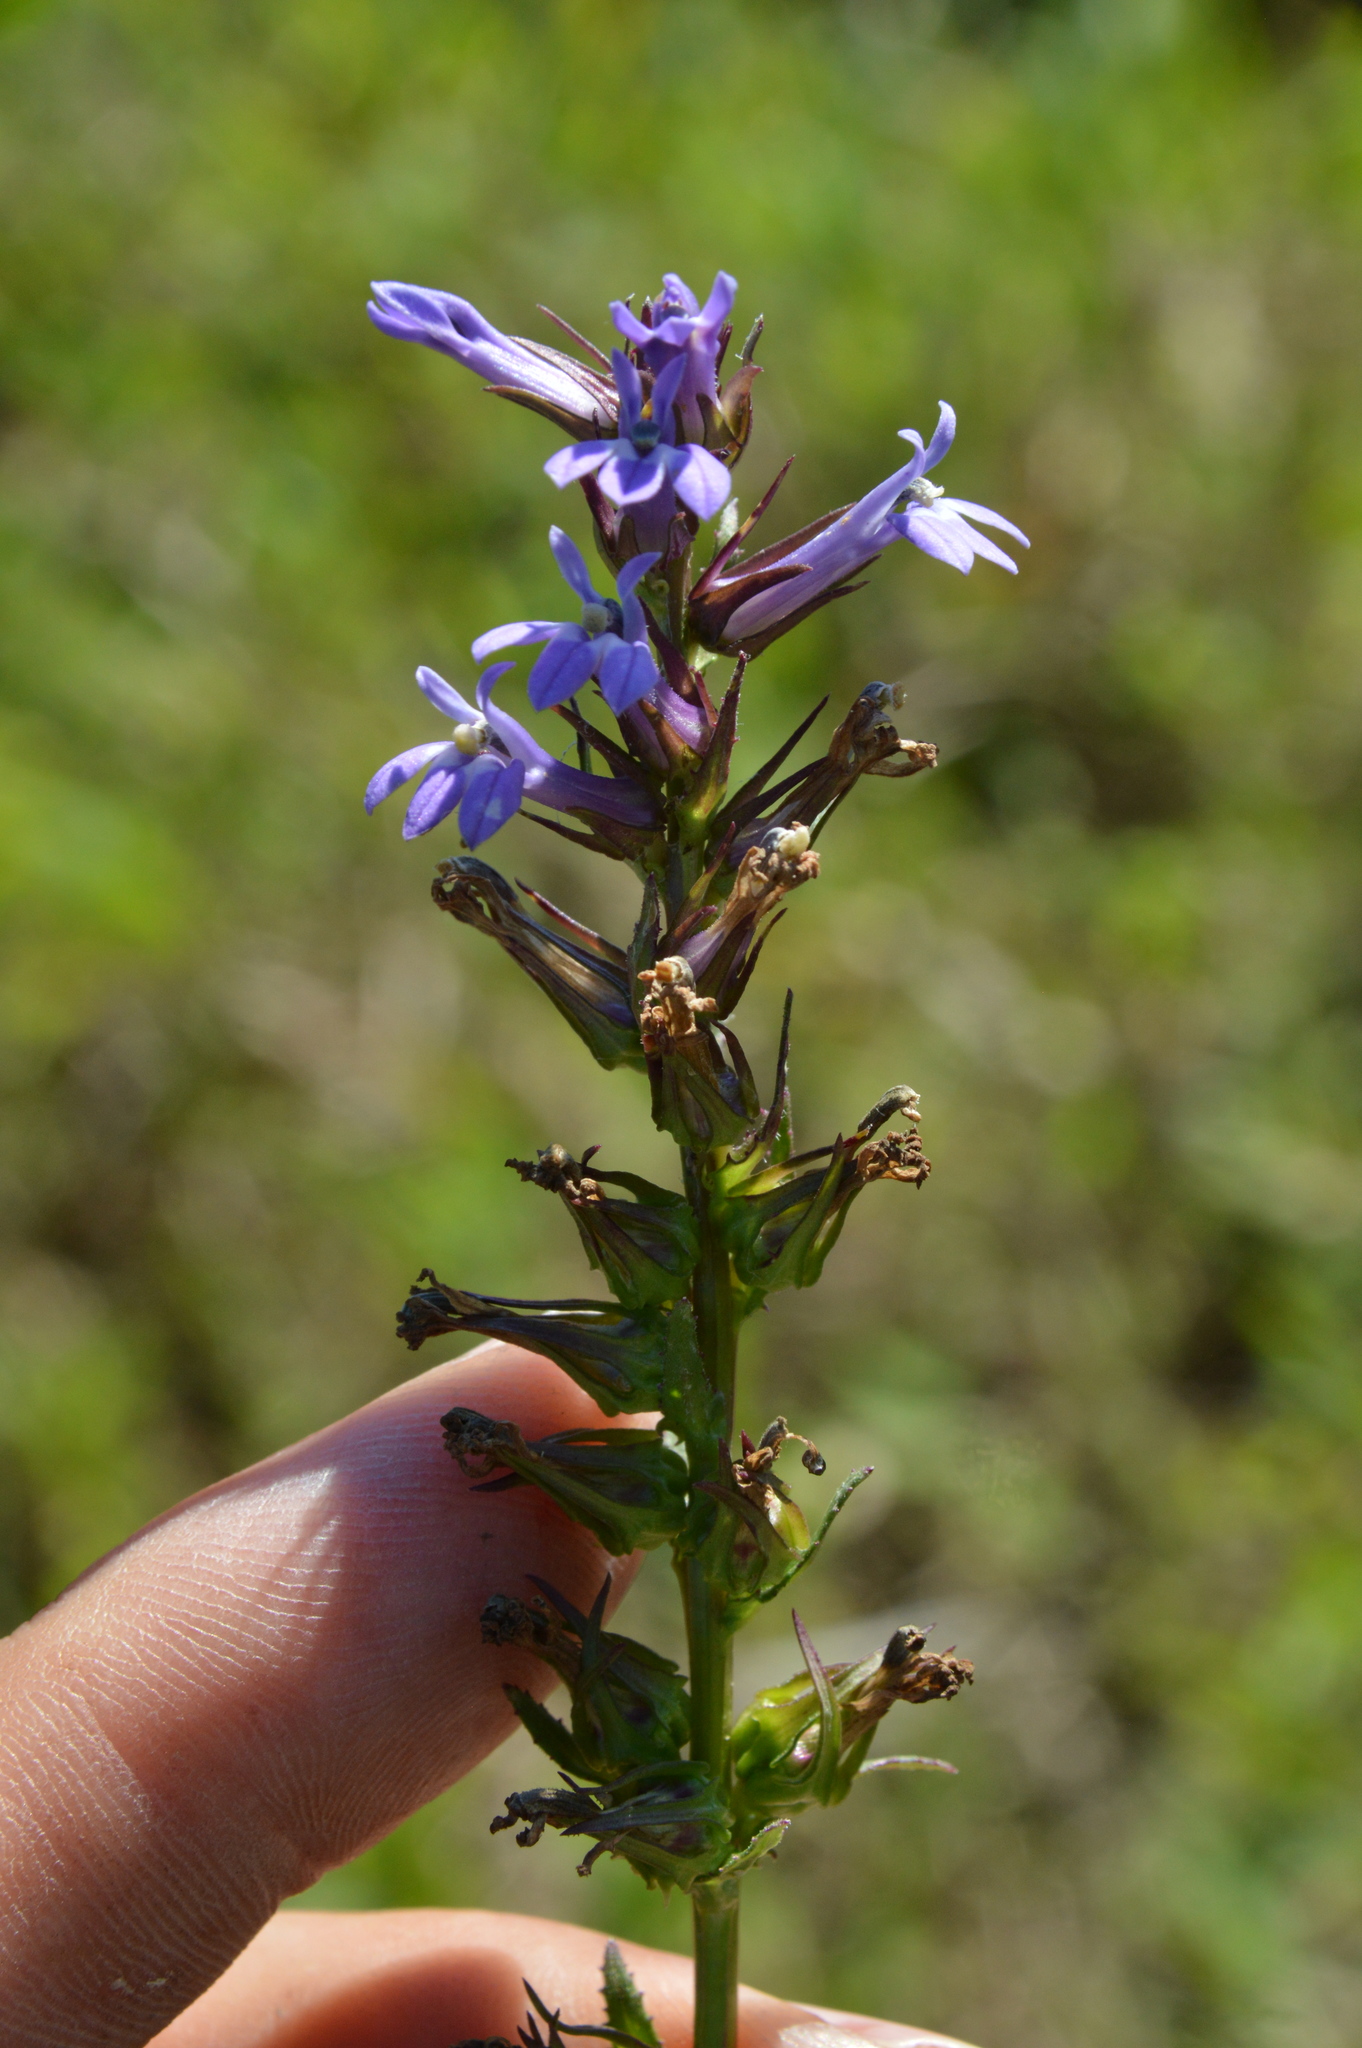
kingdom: Plantae
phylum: Tracheophyta
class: Magnoliopsida
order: Asterales
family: Campanulaceae
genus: Lobelia
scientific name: Lobelia puberula
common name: Purple dewdrop
